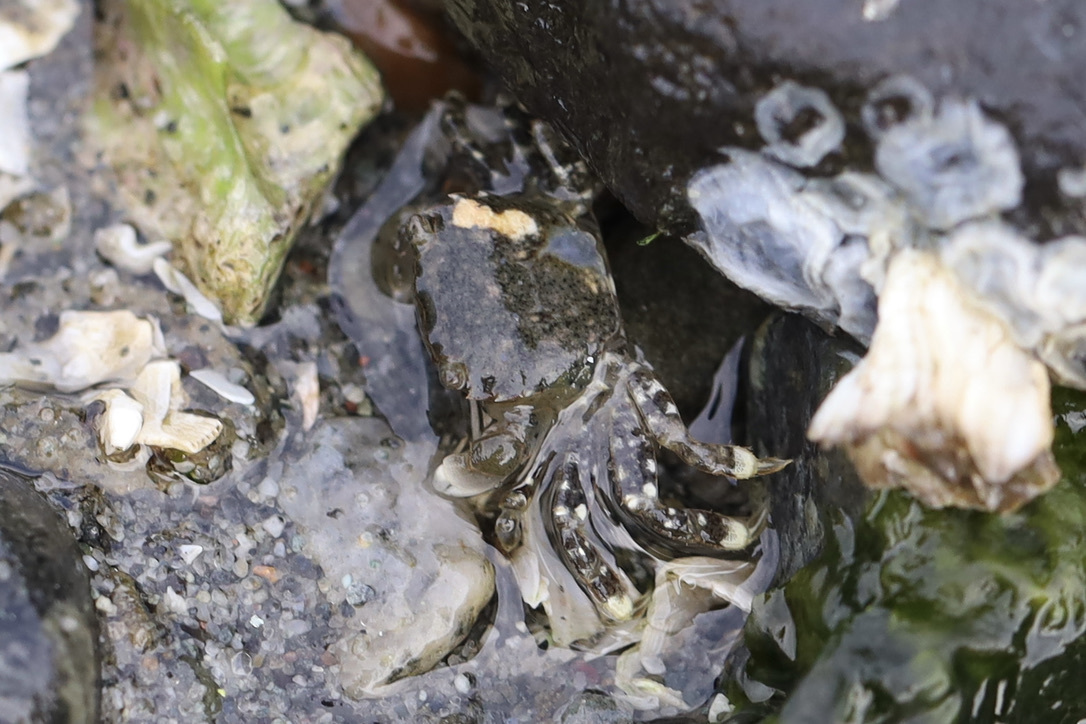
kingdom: Animalia
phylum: Arthropoda
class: Malacostraca
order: Decapoda
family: Varunidae
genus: Hemigrapsus
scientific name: Hemigrapsus oregonensis
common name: Yellow shore crab
